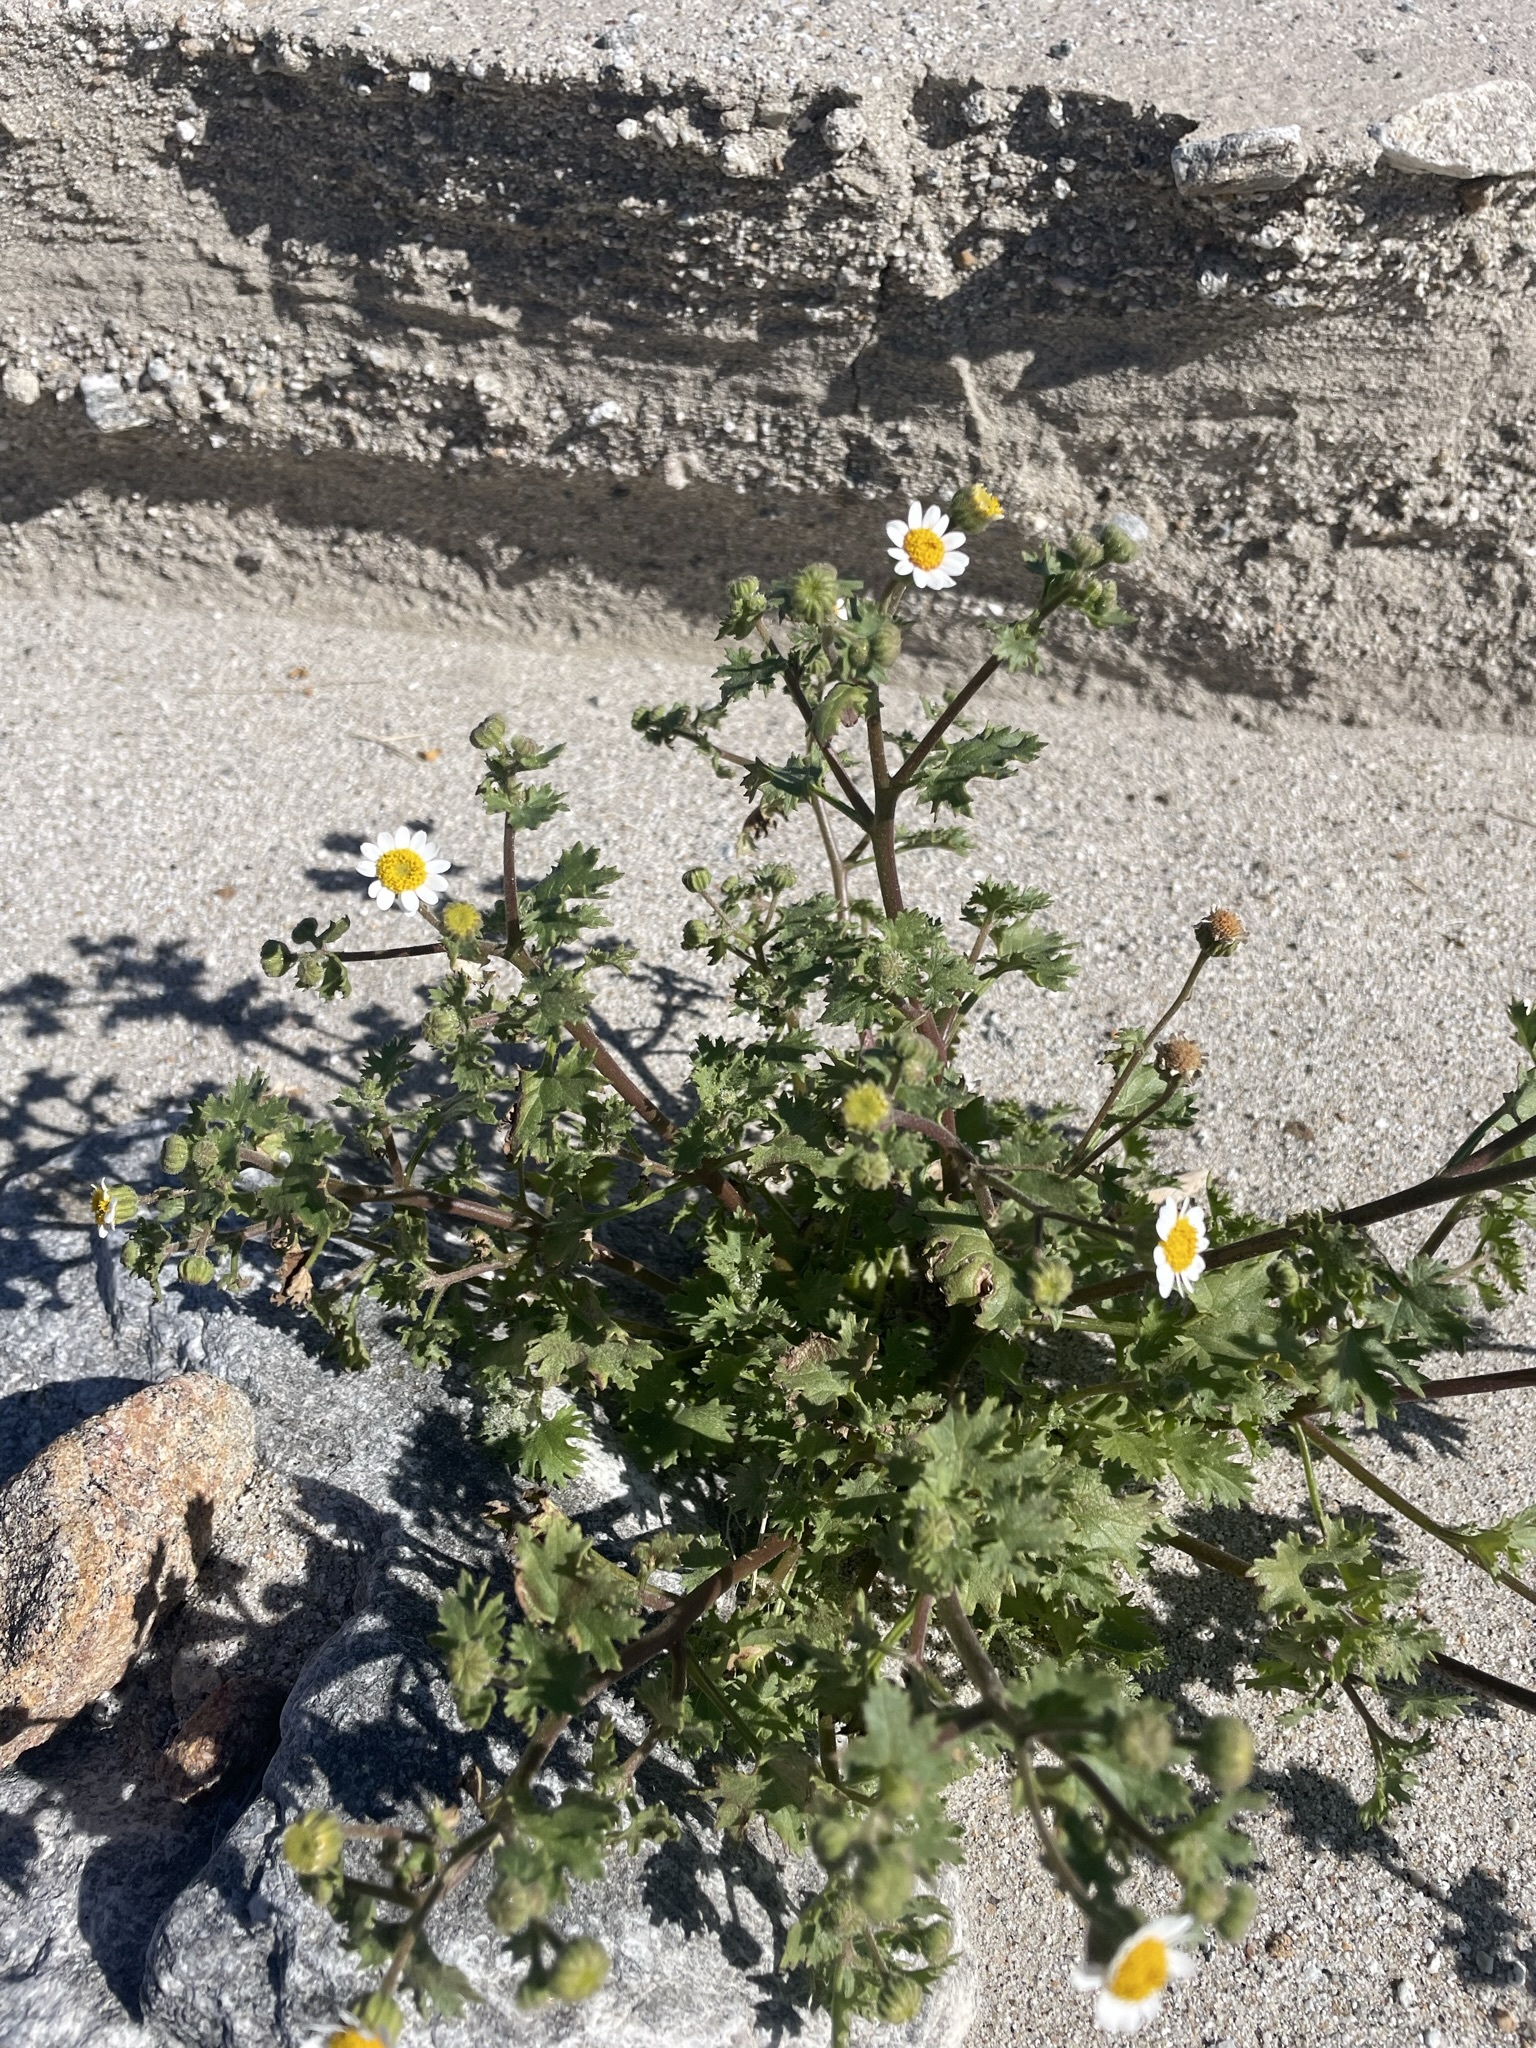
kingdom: Plantae
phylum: Tracheophyta
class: Magnoliopsida
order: Asterales
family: Asteraceae
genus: Laphamia
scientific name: Laphamia emoryi
